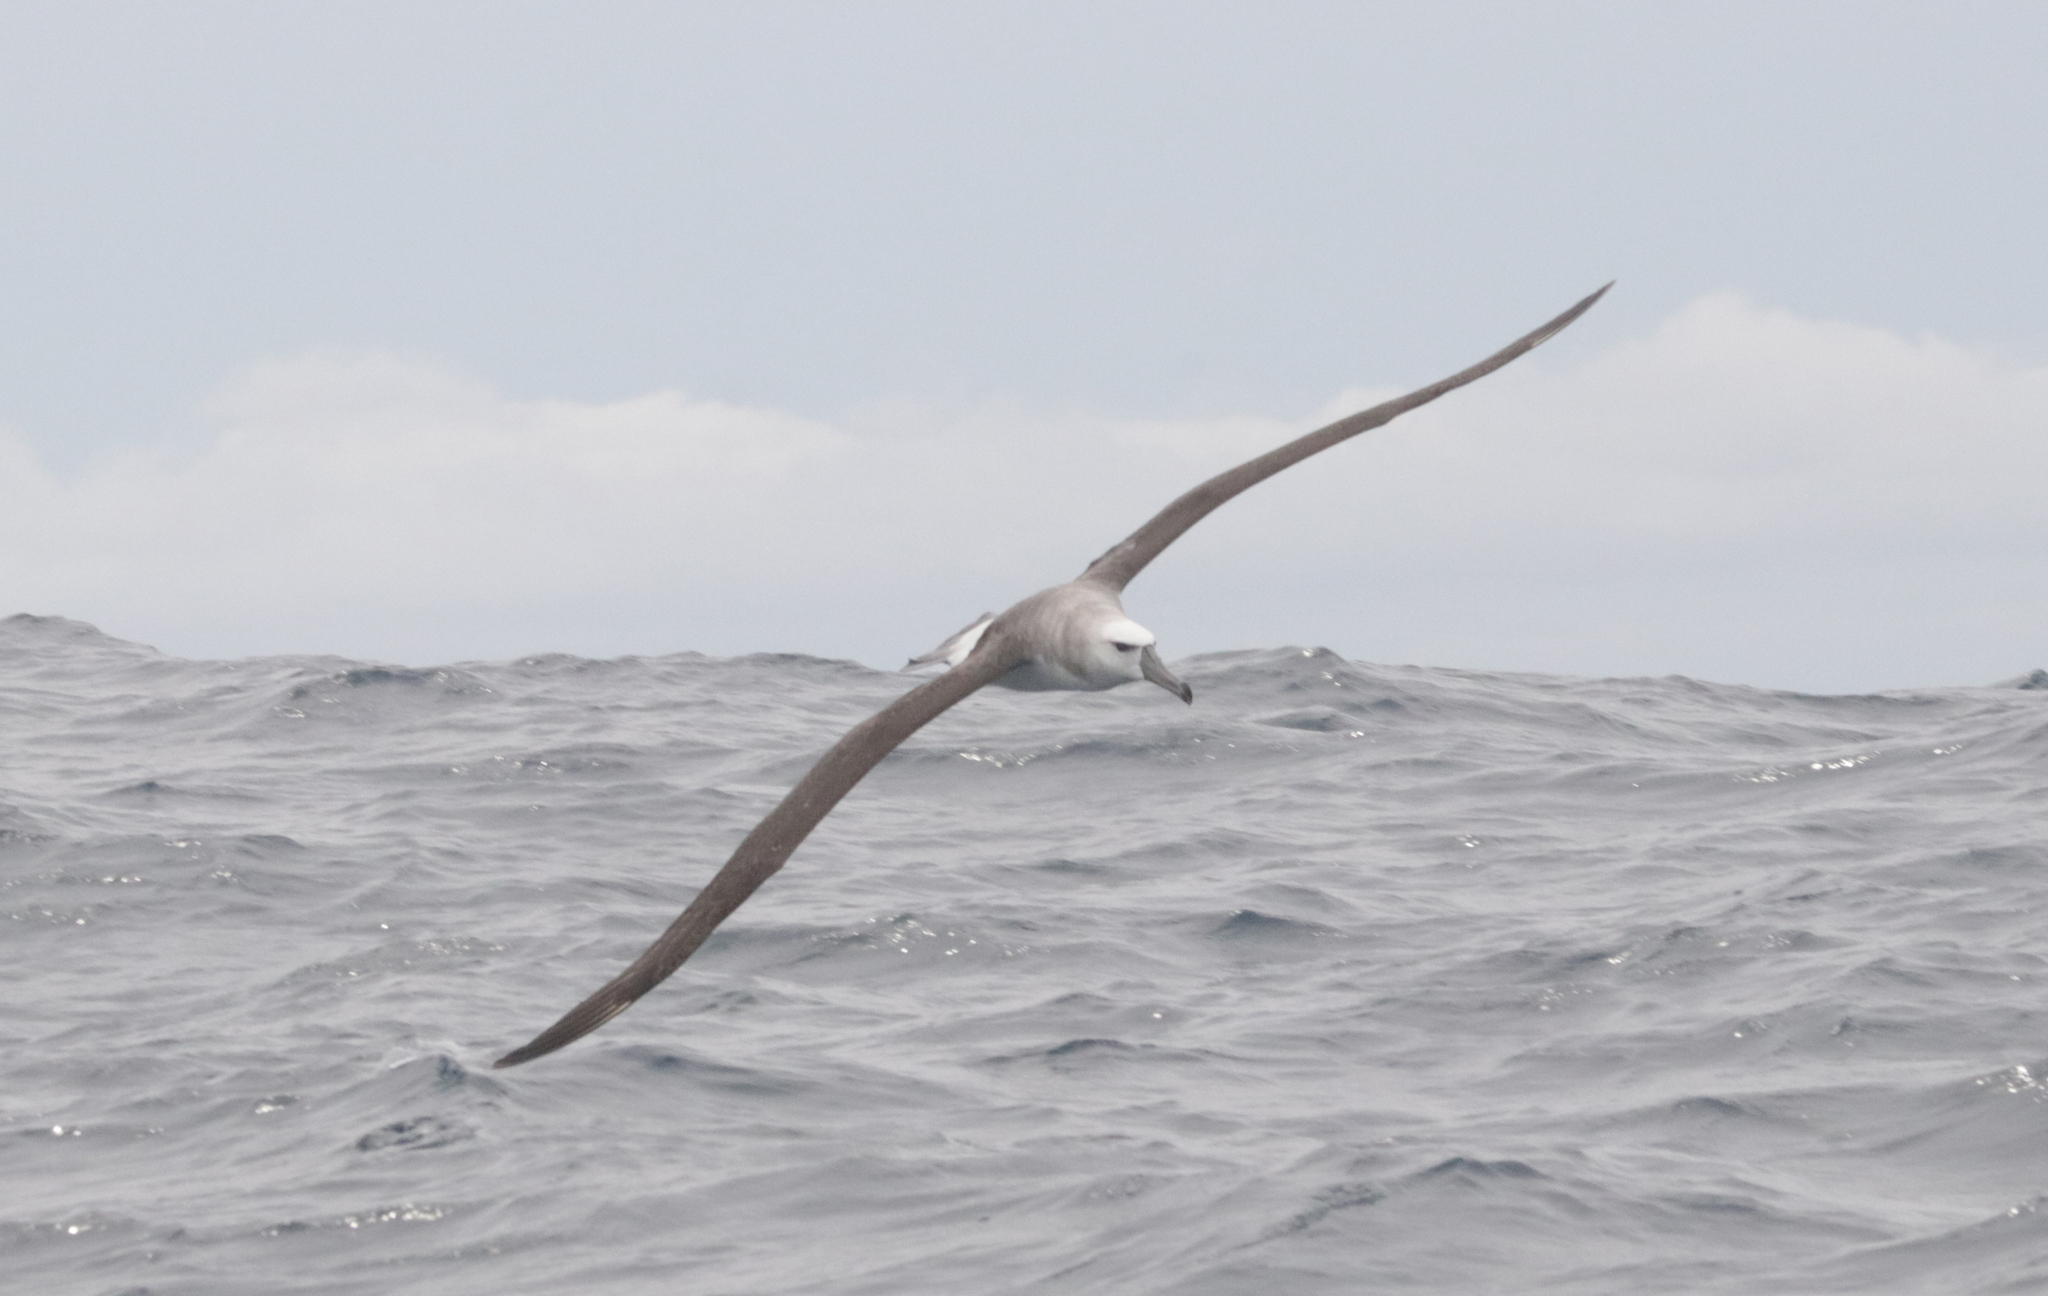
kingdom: Animalia
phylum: Chordata
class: Aves
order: Procellariiformes
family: Diomedeidae
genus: Thalassarche
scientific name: Thalassarche cauta
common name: Shy albatross
